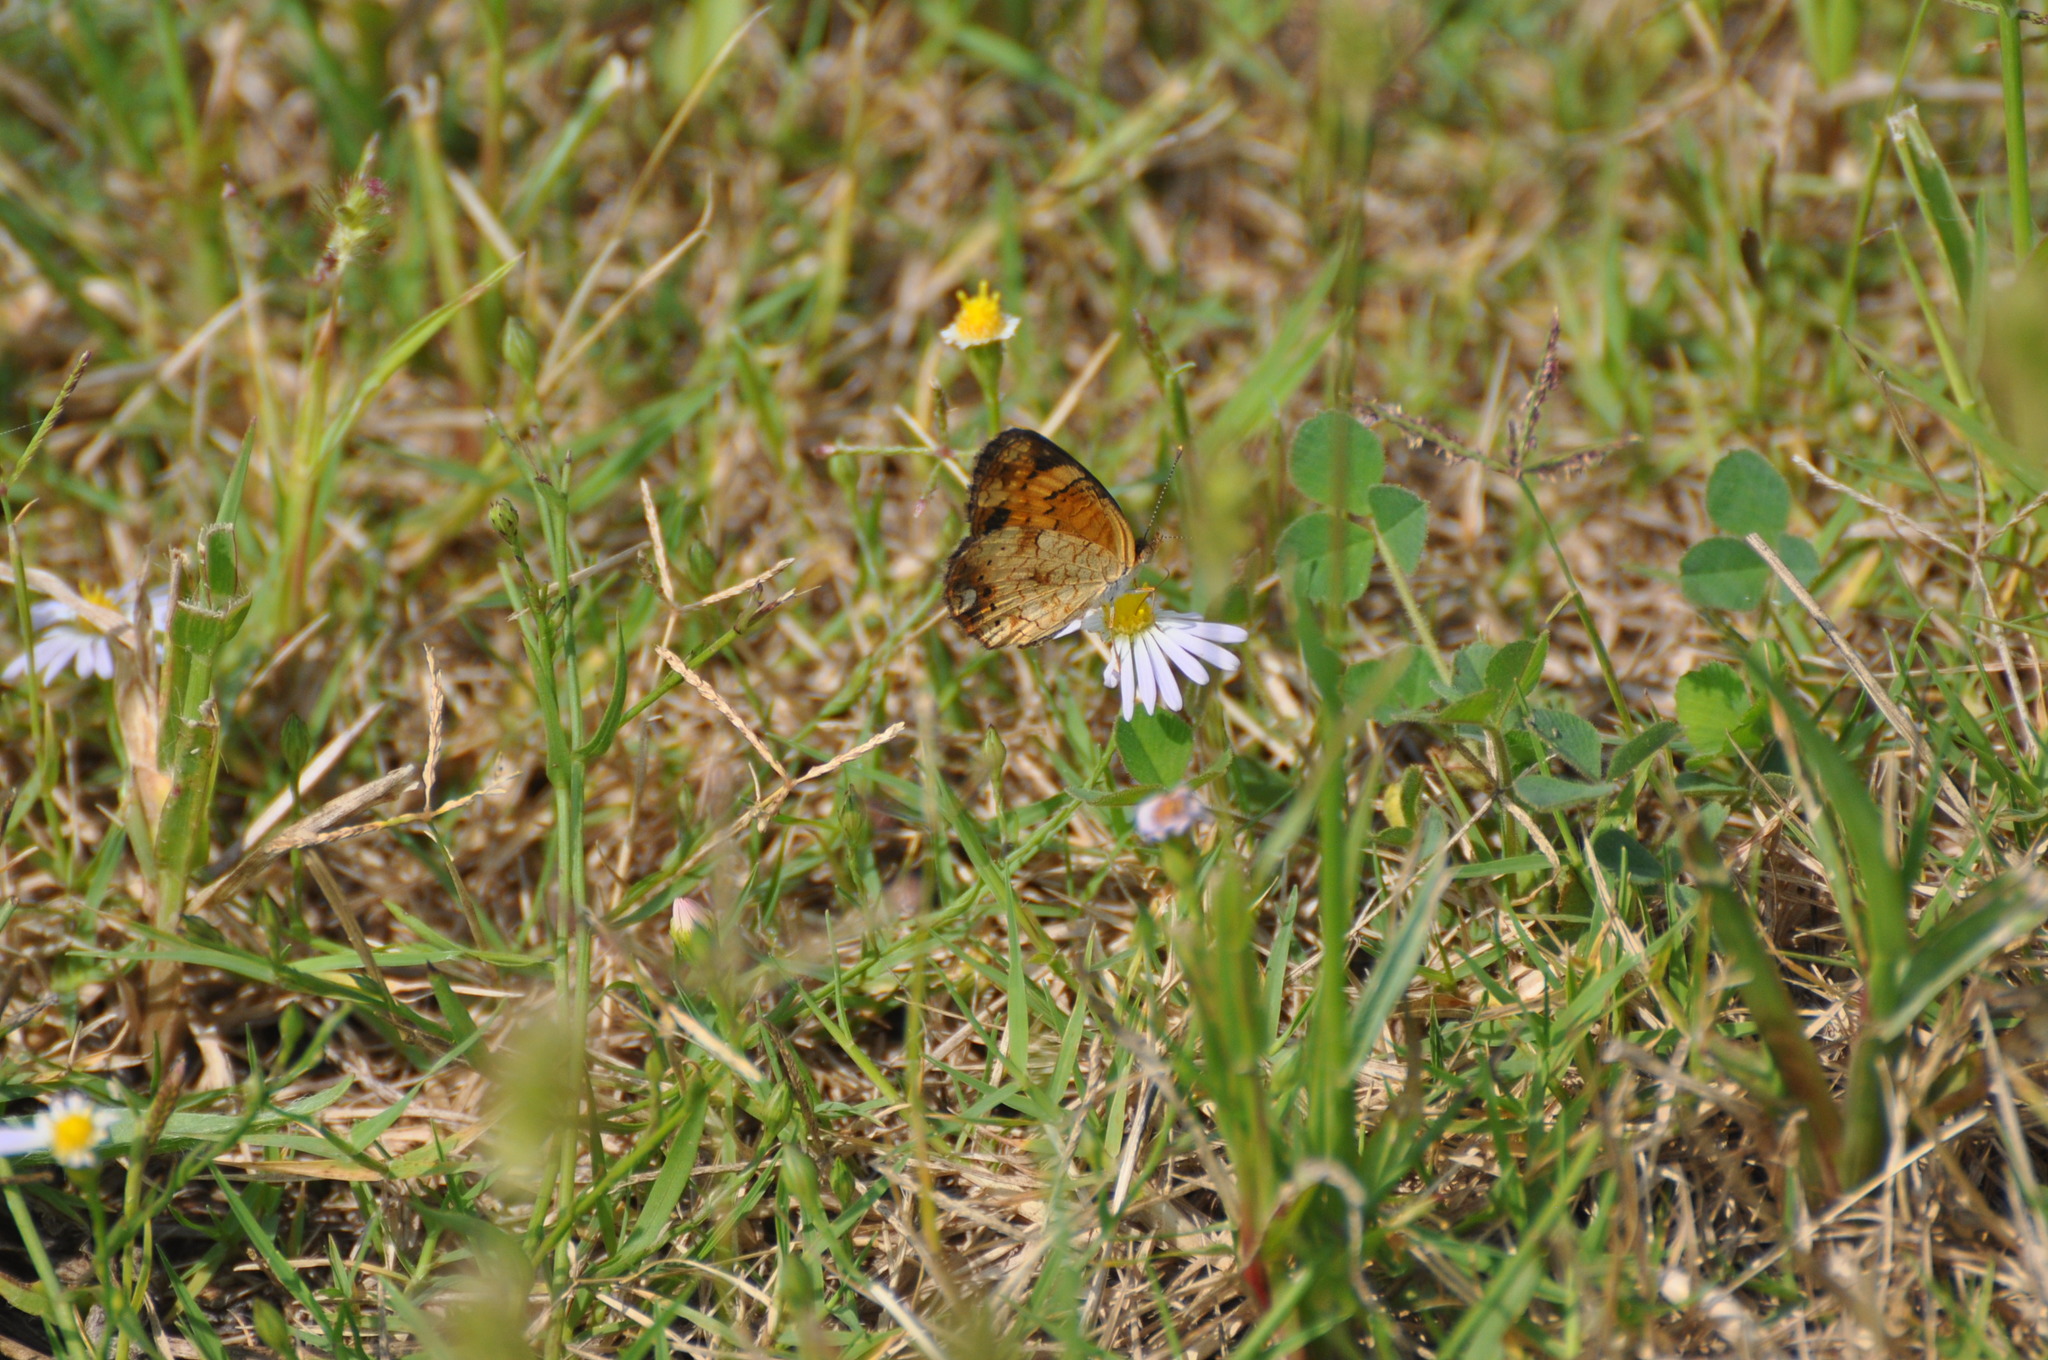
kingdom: Animalia
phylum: Arthropoda
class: Insecta
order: Lepidoptera
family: Nymphalidae
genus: Phyciodes
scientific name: Phyciodes tharos
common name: Pearl crescent
